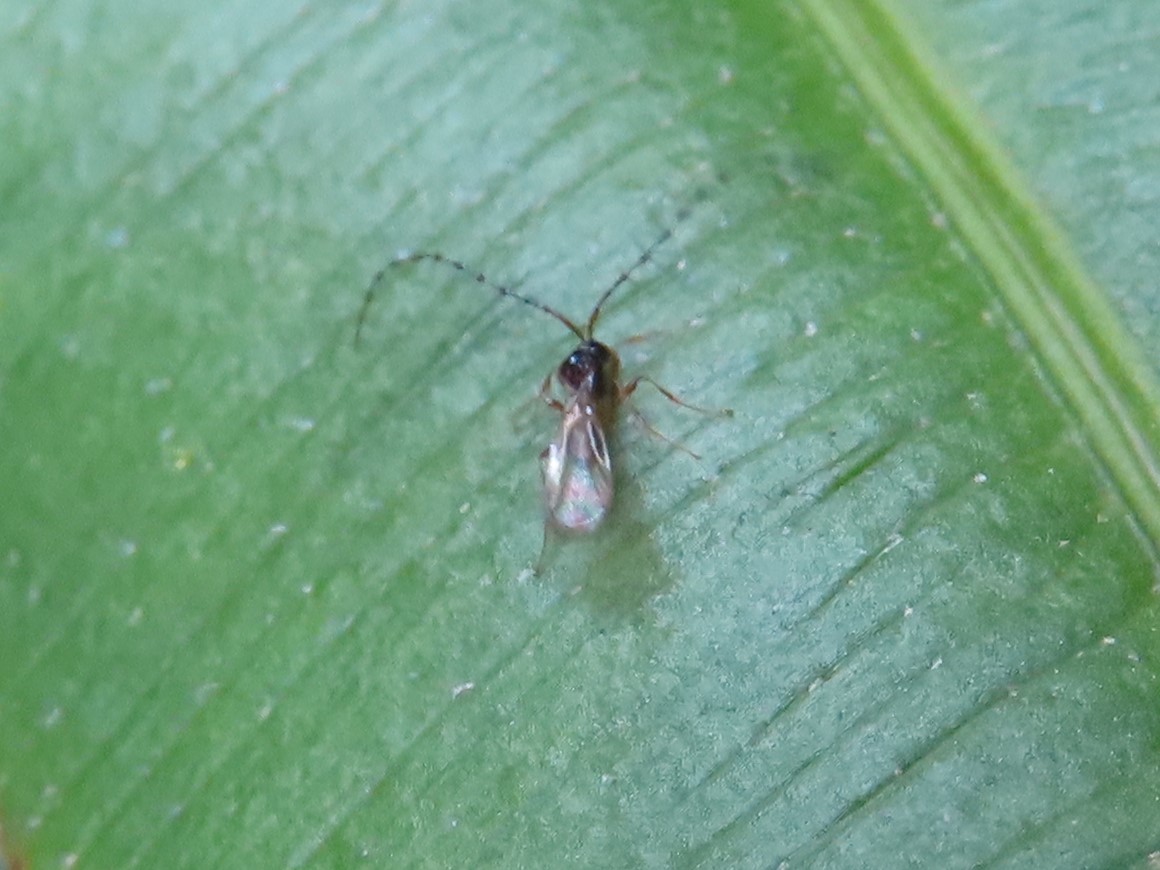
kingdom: Animalia
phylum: Arthropoda
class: Insecta
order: Hymenoptera
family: Diapriidae
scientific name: Diapriidae
